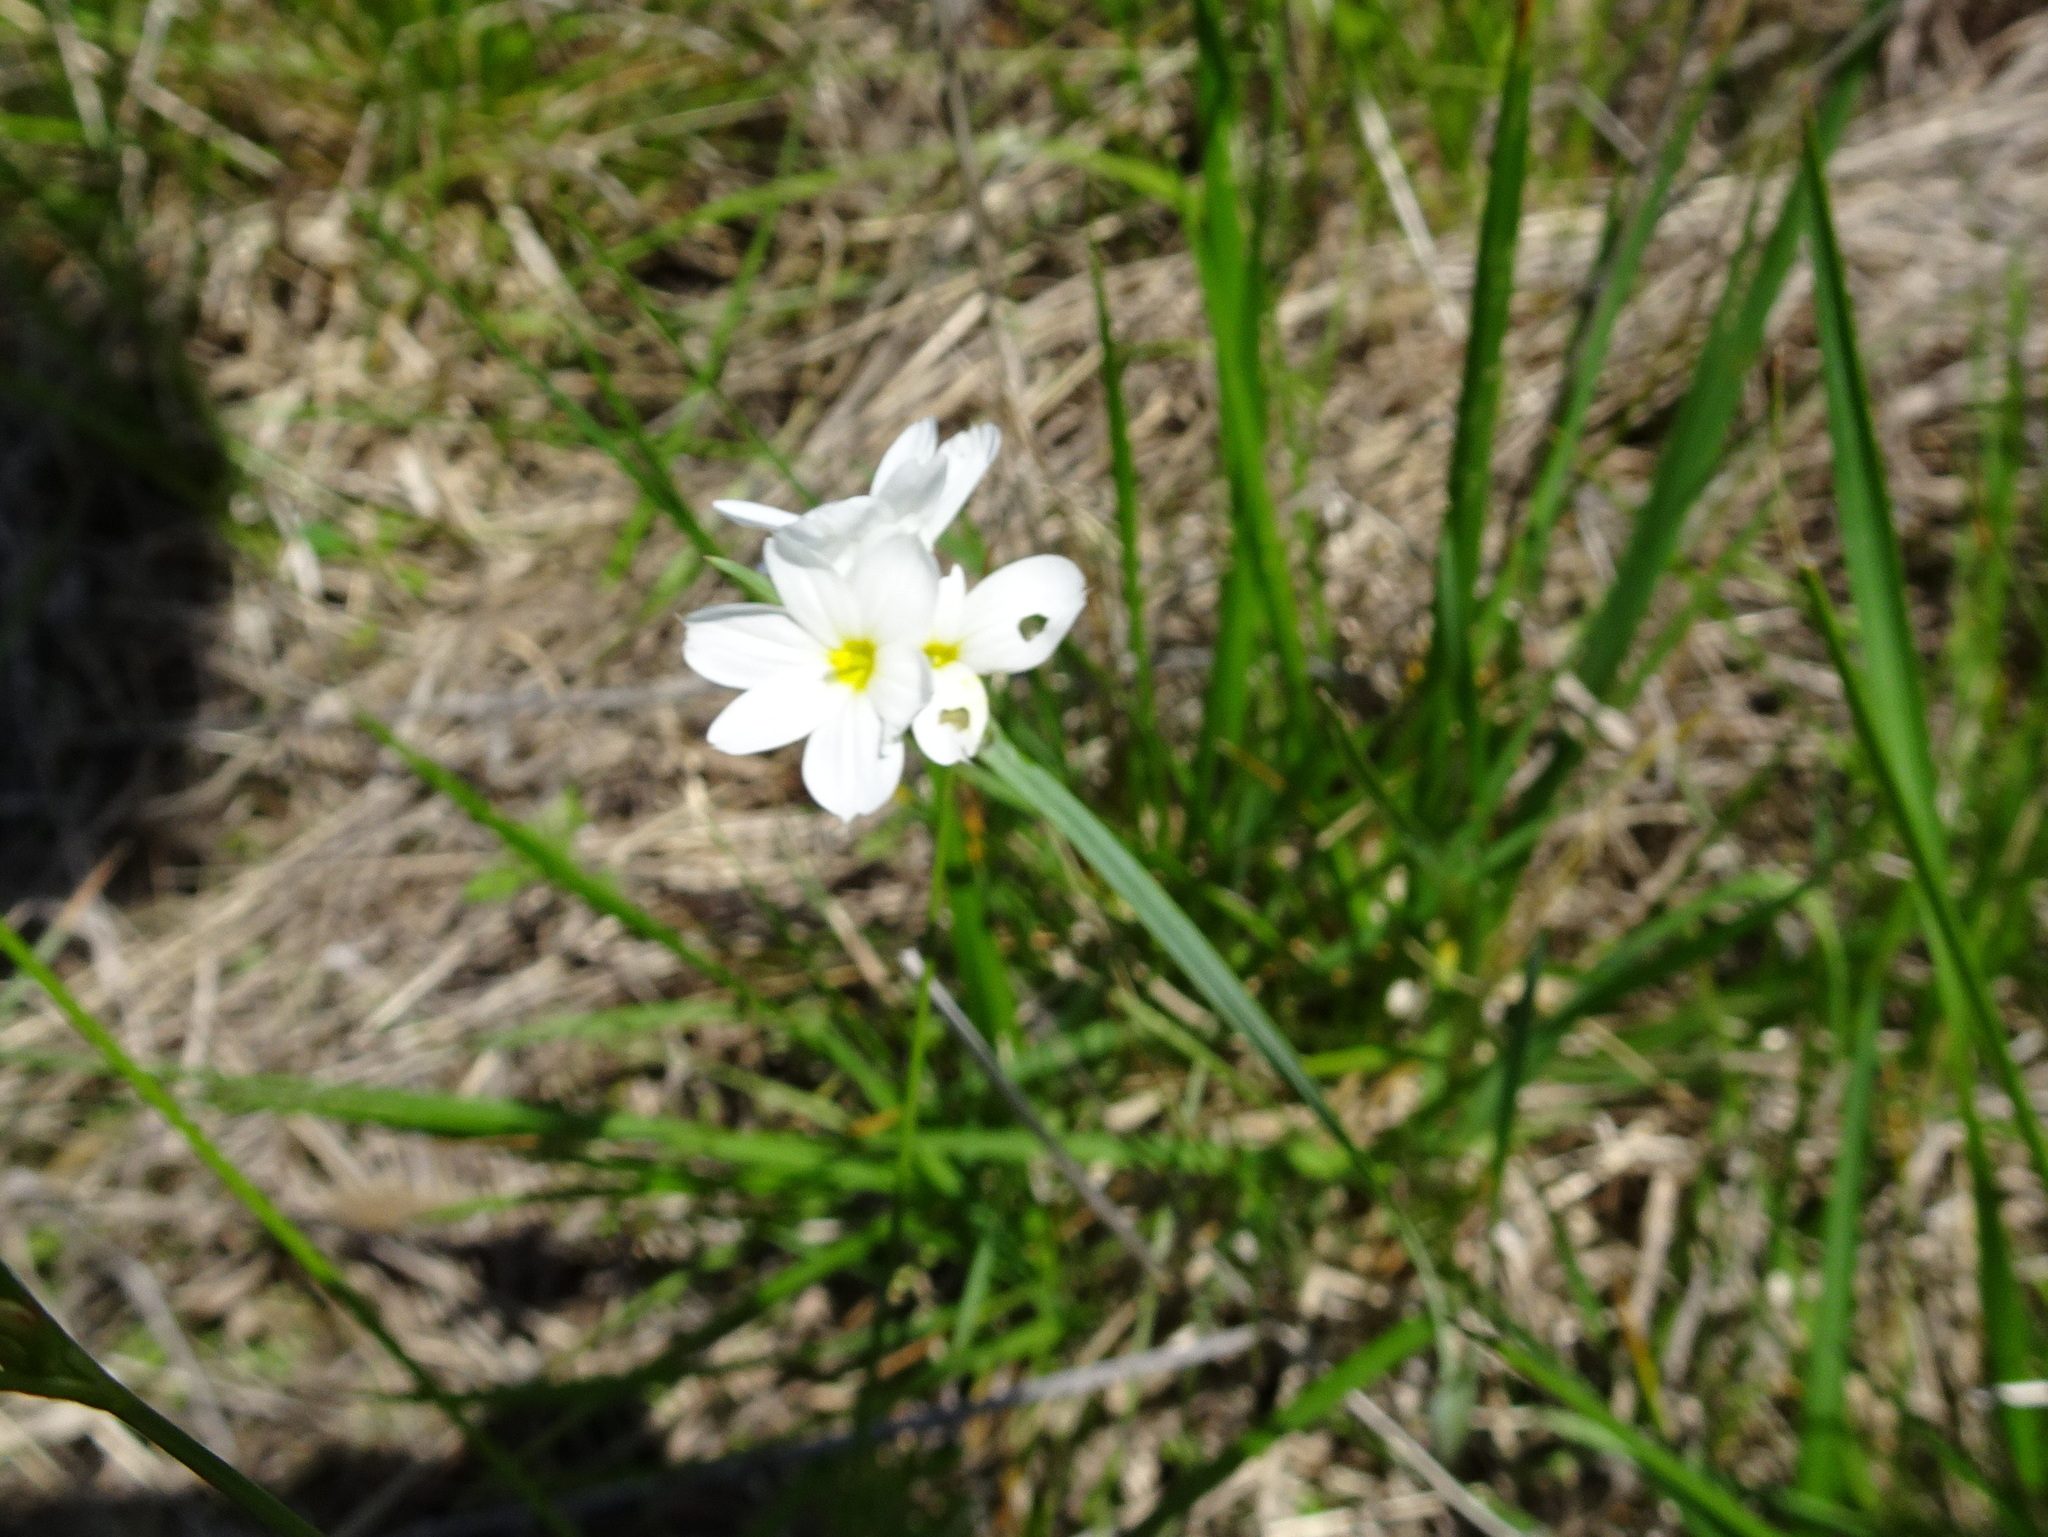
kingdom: Plantae
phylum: Tracheophyta
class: Liliopsida
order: Asparagales
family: Iridaceae
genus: Sisyrinchium
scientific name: Sisyrinchium campestre
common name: Prairie blue-eyed-grass
